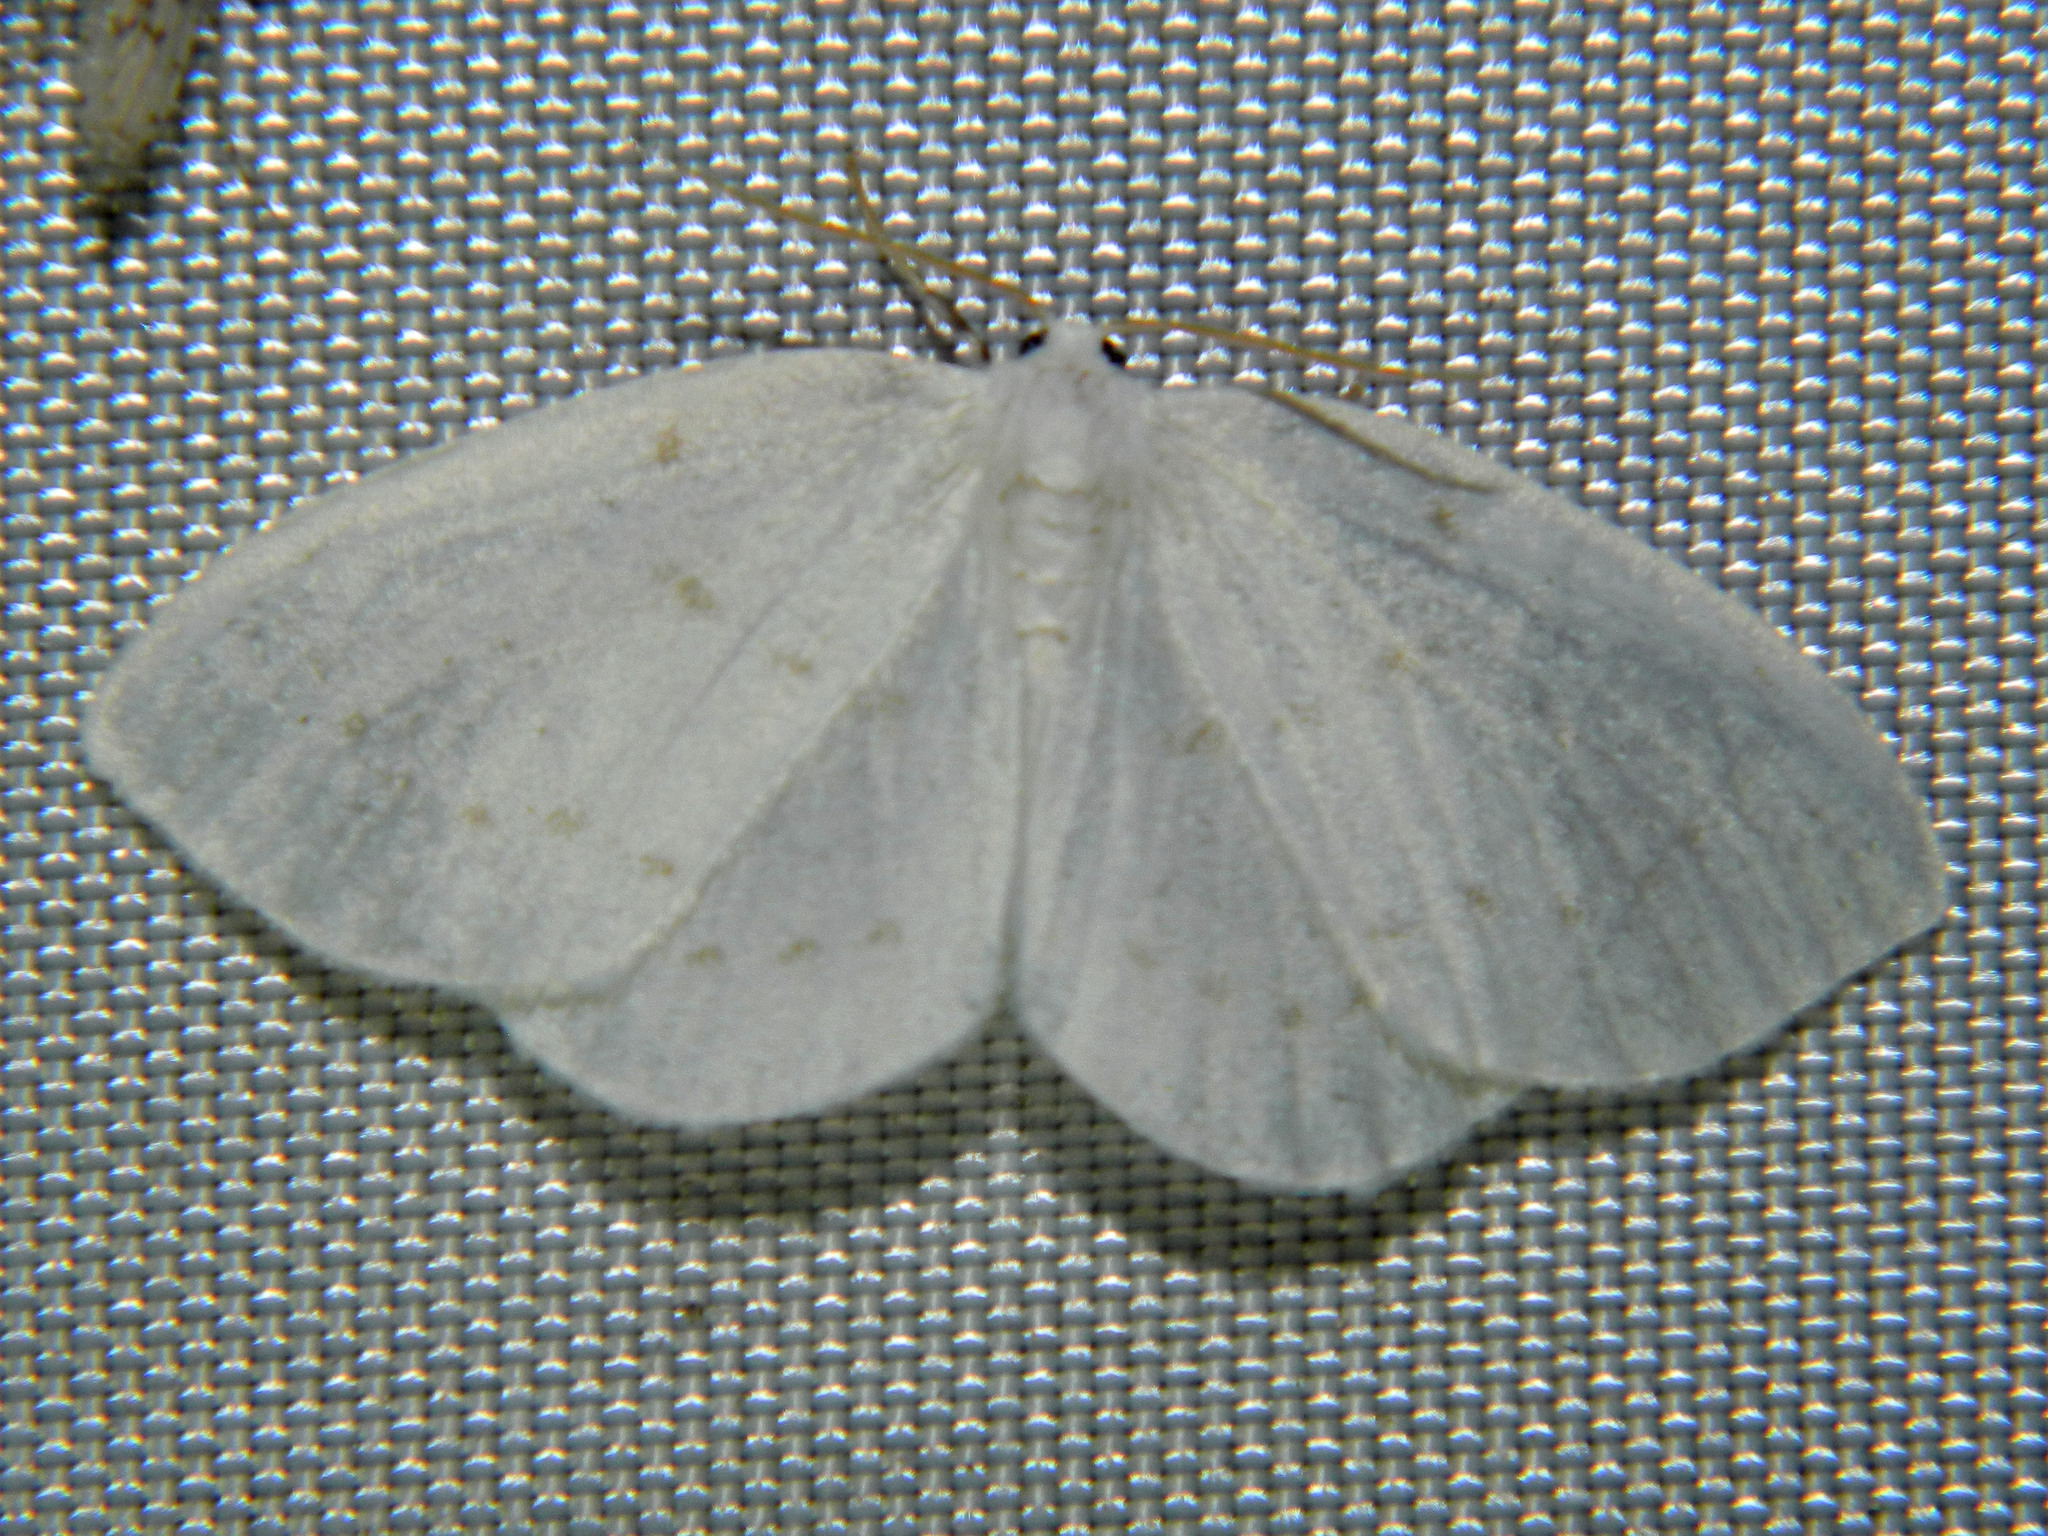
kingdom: Animalia
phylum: Arthropoda
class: Insecta
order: Lepidoptera
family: Drepanidae
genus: Eudeilinia
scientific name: Eudeilinia herminiata
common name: Northern eudeilinea moth
